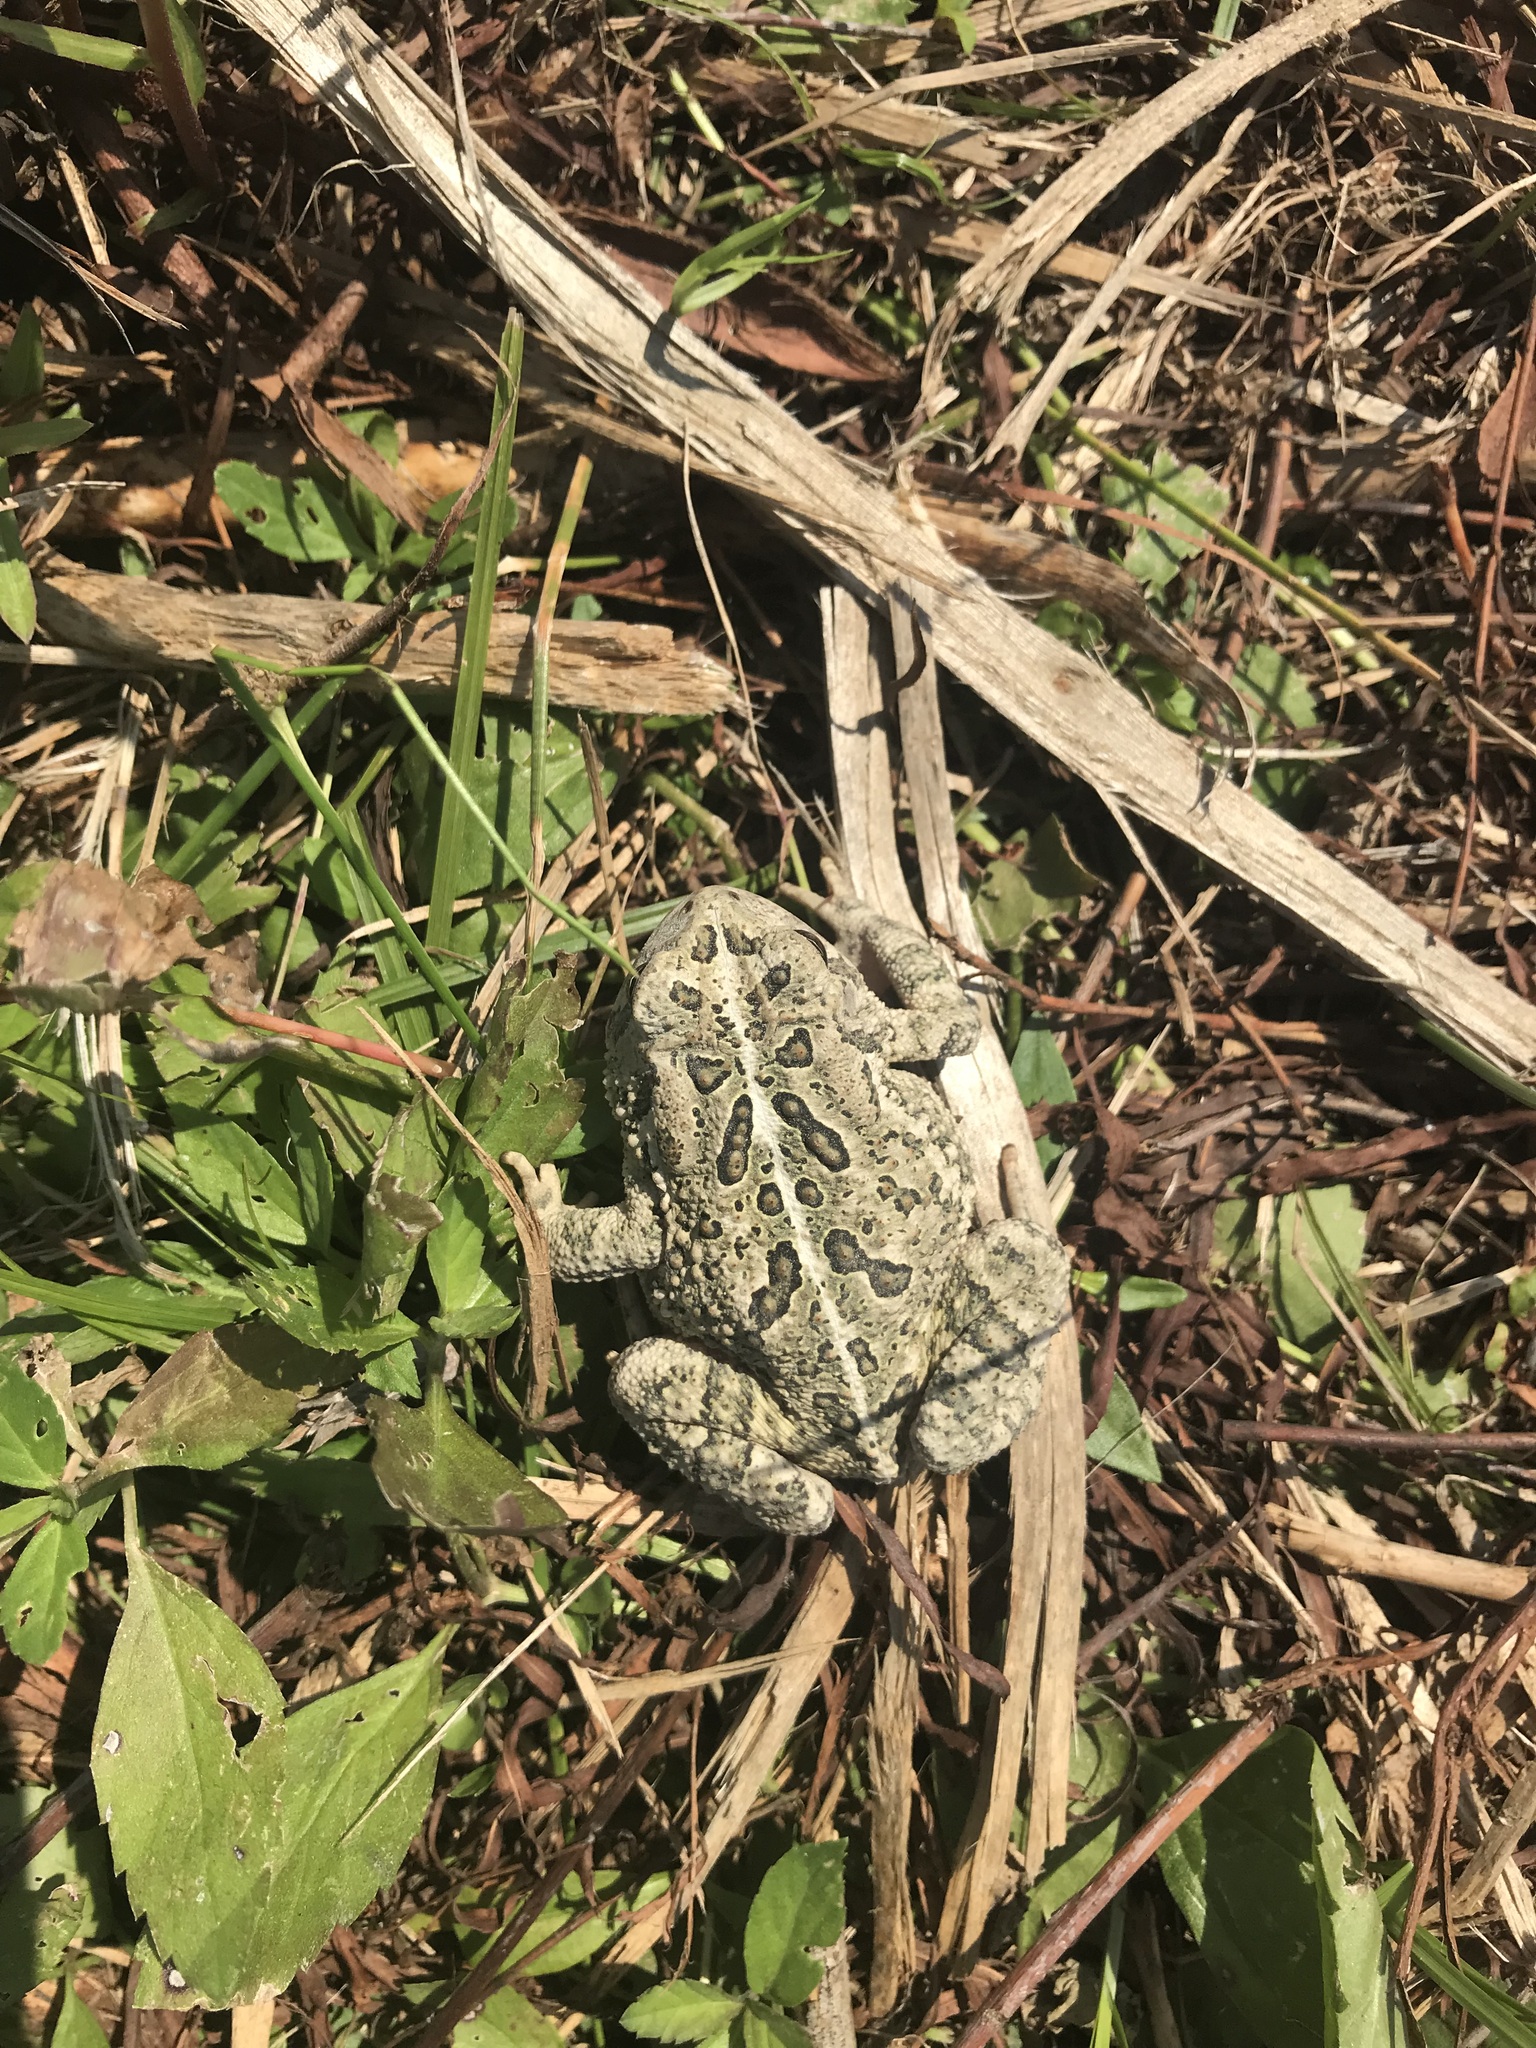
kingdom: Animalia
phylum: Chordata
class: Amphibia
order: Anura
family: Bufonidae
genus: Anaxyrus
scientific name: Anaxyrus woodhousii
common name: Woodhouse's toad
